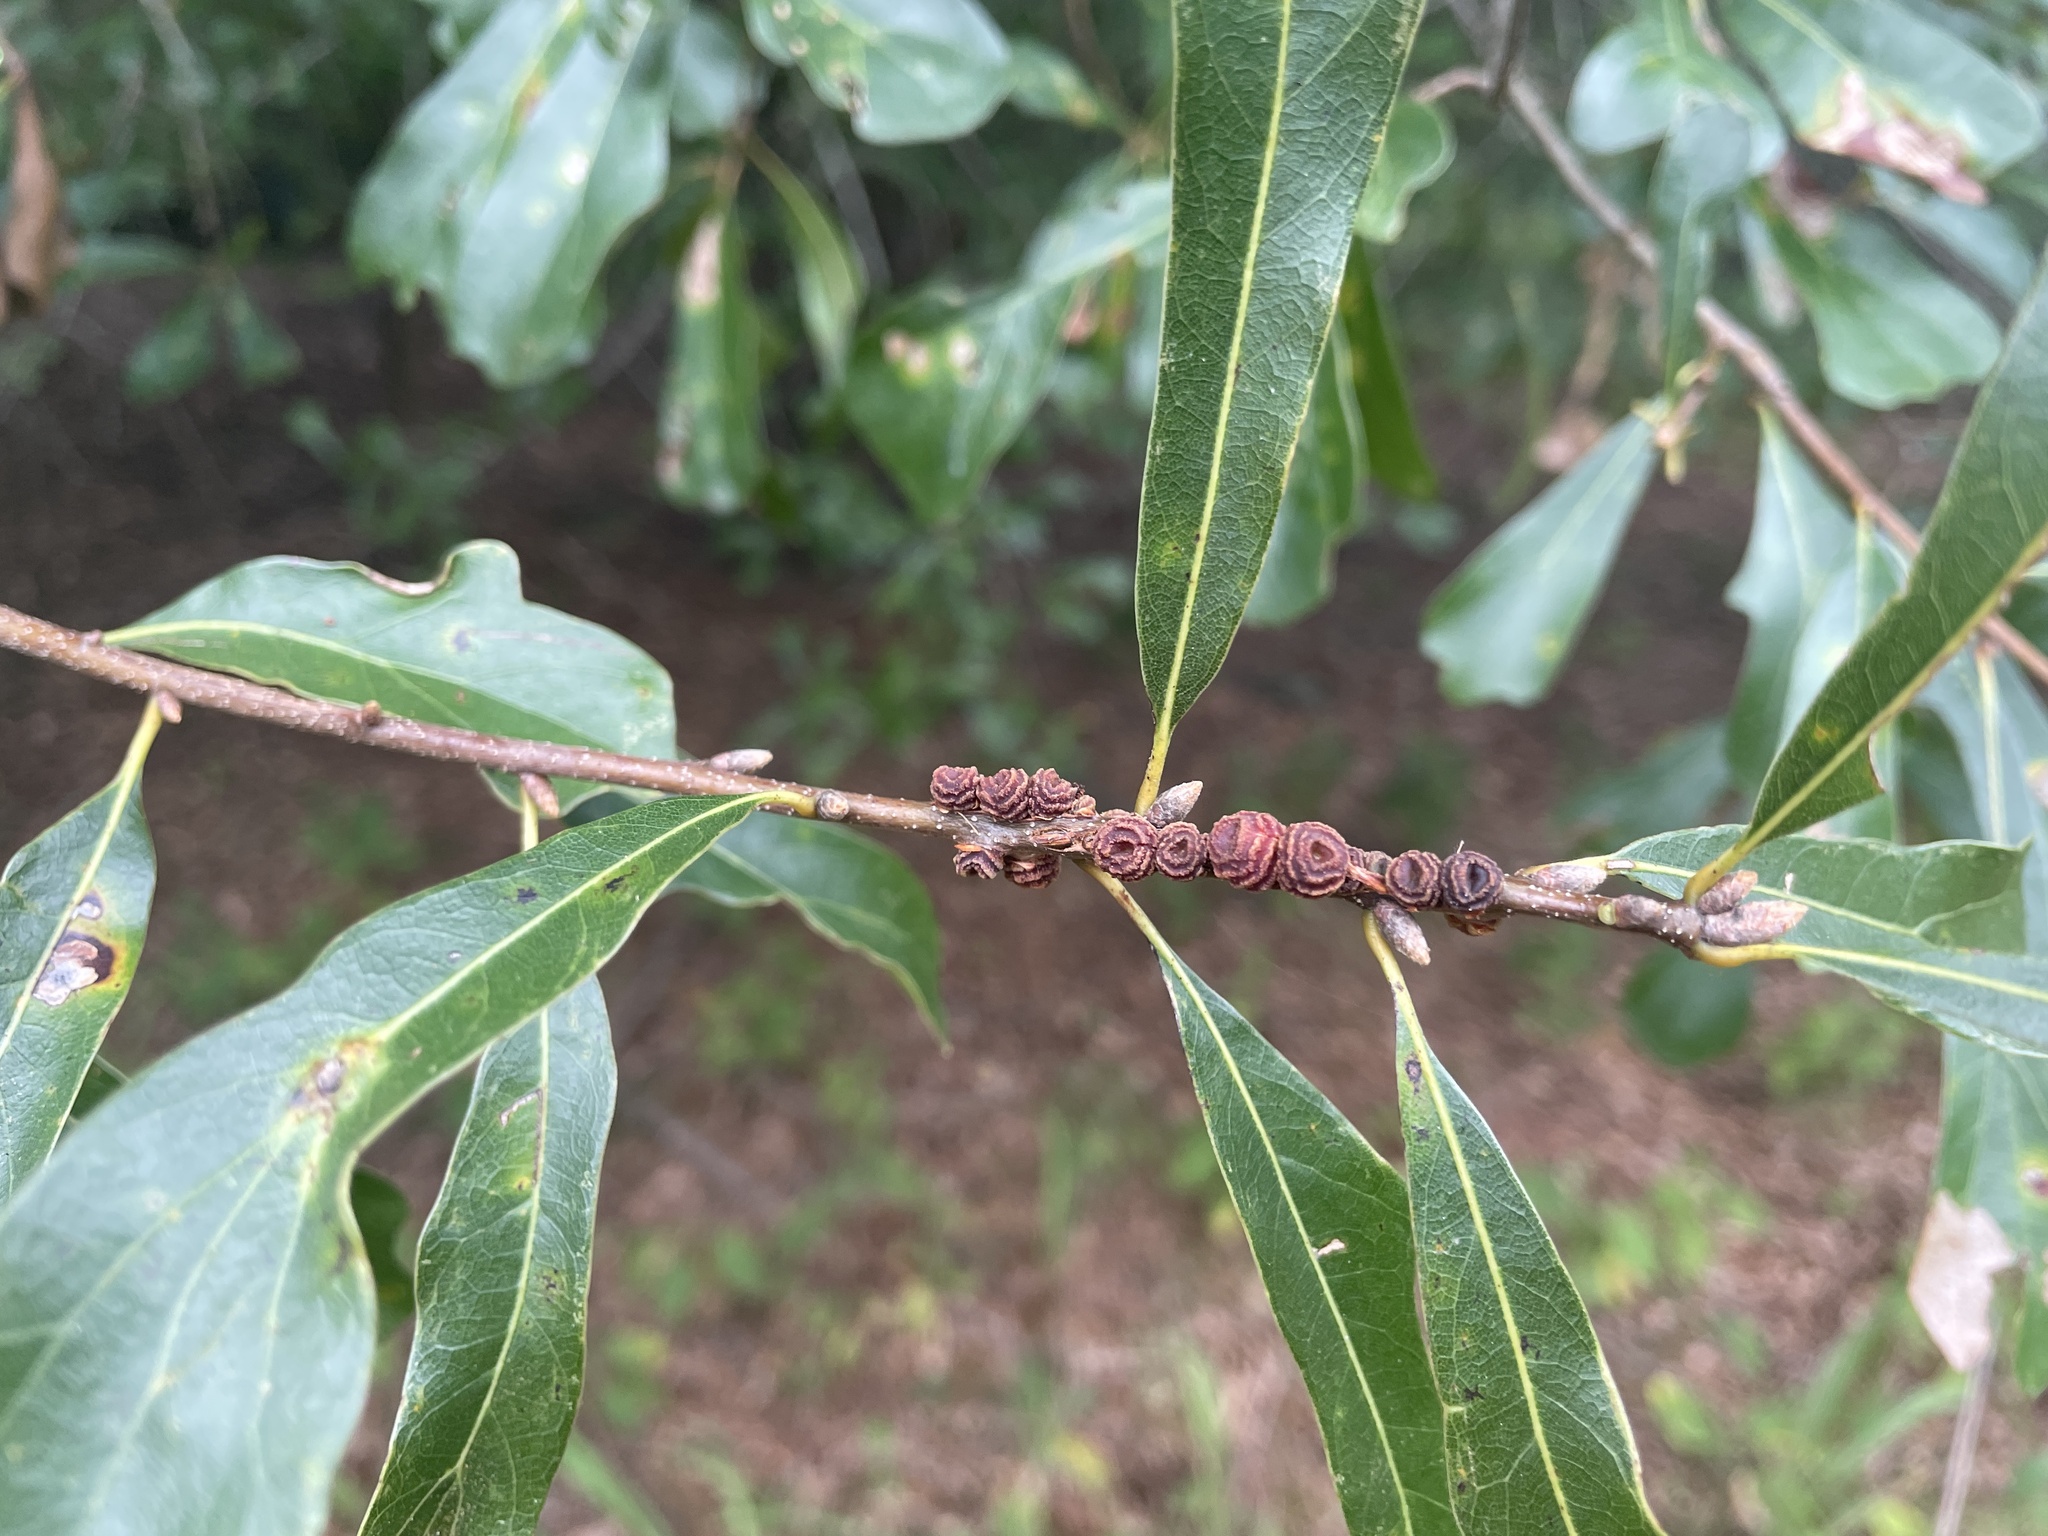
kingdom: Animalia
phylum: Arthropoda
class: Insecta
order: Hymenoptera
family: Cynipidae
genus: Kokkocynips
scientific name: Kokkocynips difficilis
